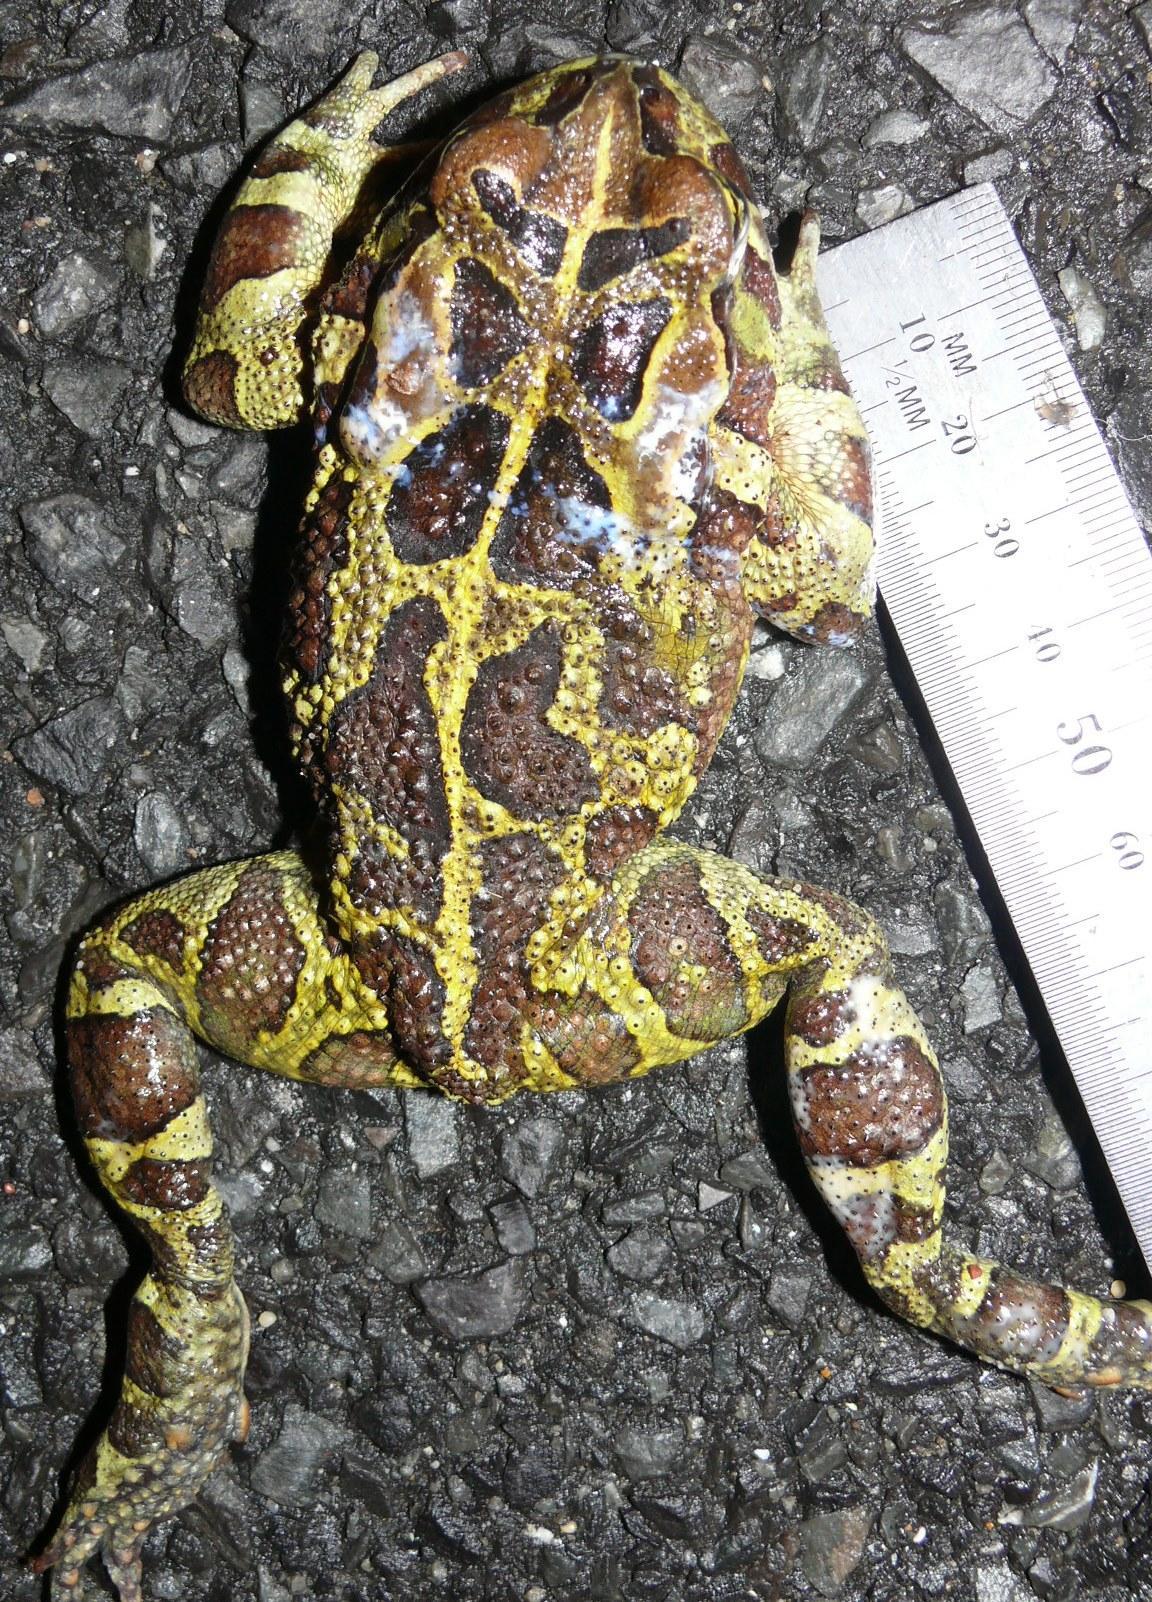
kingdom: Animalia
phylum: Chordata
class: Amphibia
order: Anura
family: Bufonidae
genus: Sclerophrys
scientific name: Sclerophrys pantherina
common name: Panther toad
